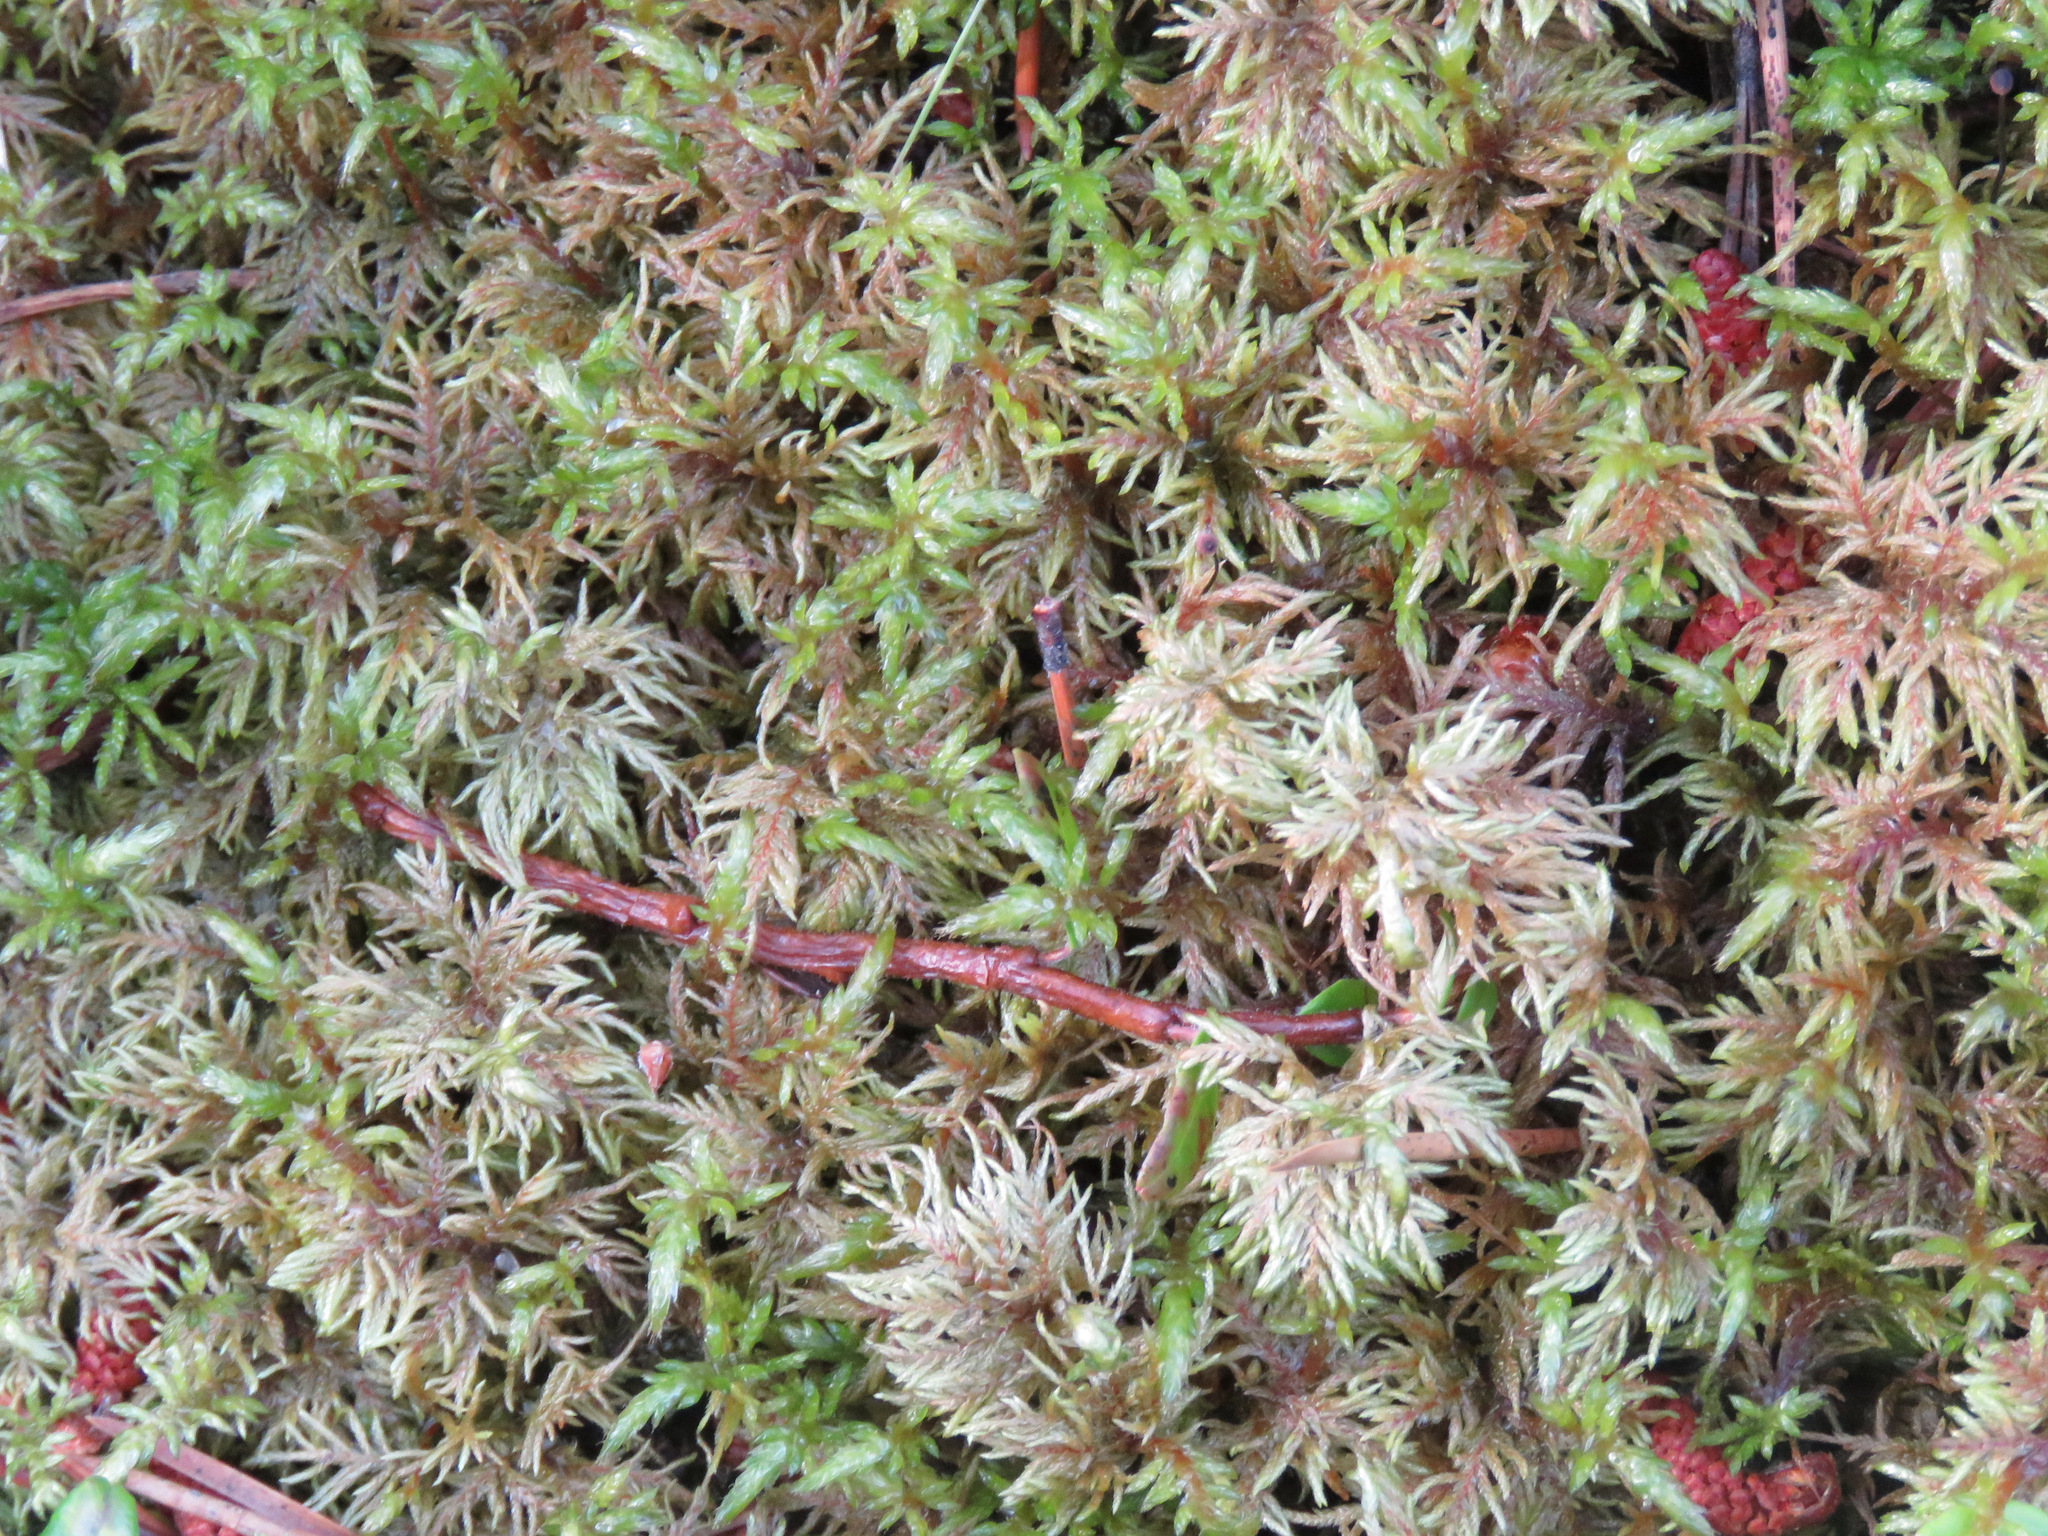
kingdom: Plantae
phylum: Bryophyta
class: Bryopsida
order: Hypnales
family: Hylocomiaceae
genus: Hylocomium
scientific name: Hylocomium splendens
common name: Stairstep moss
